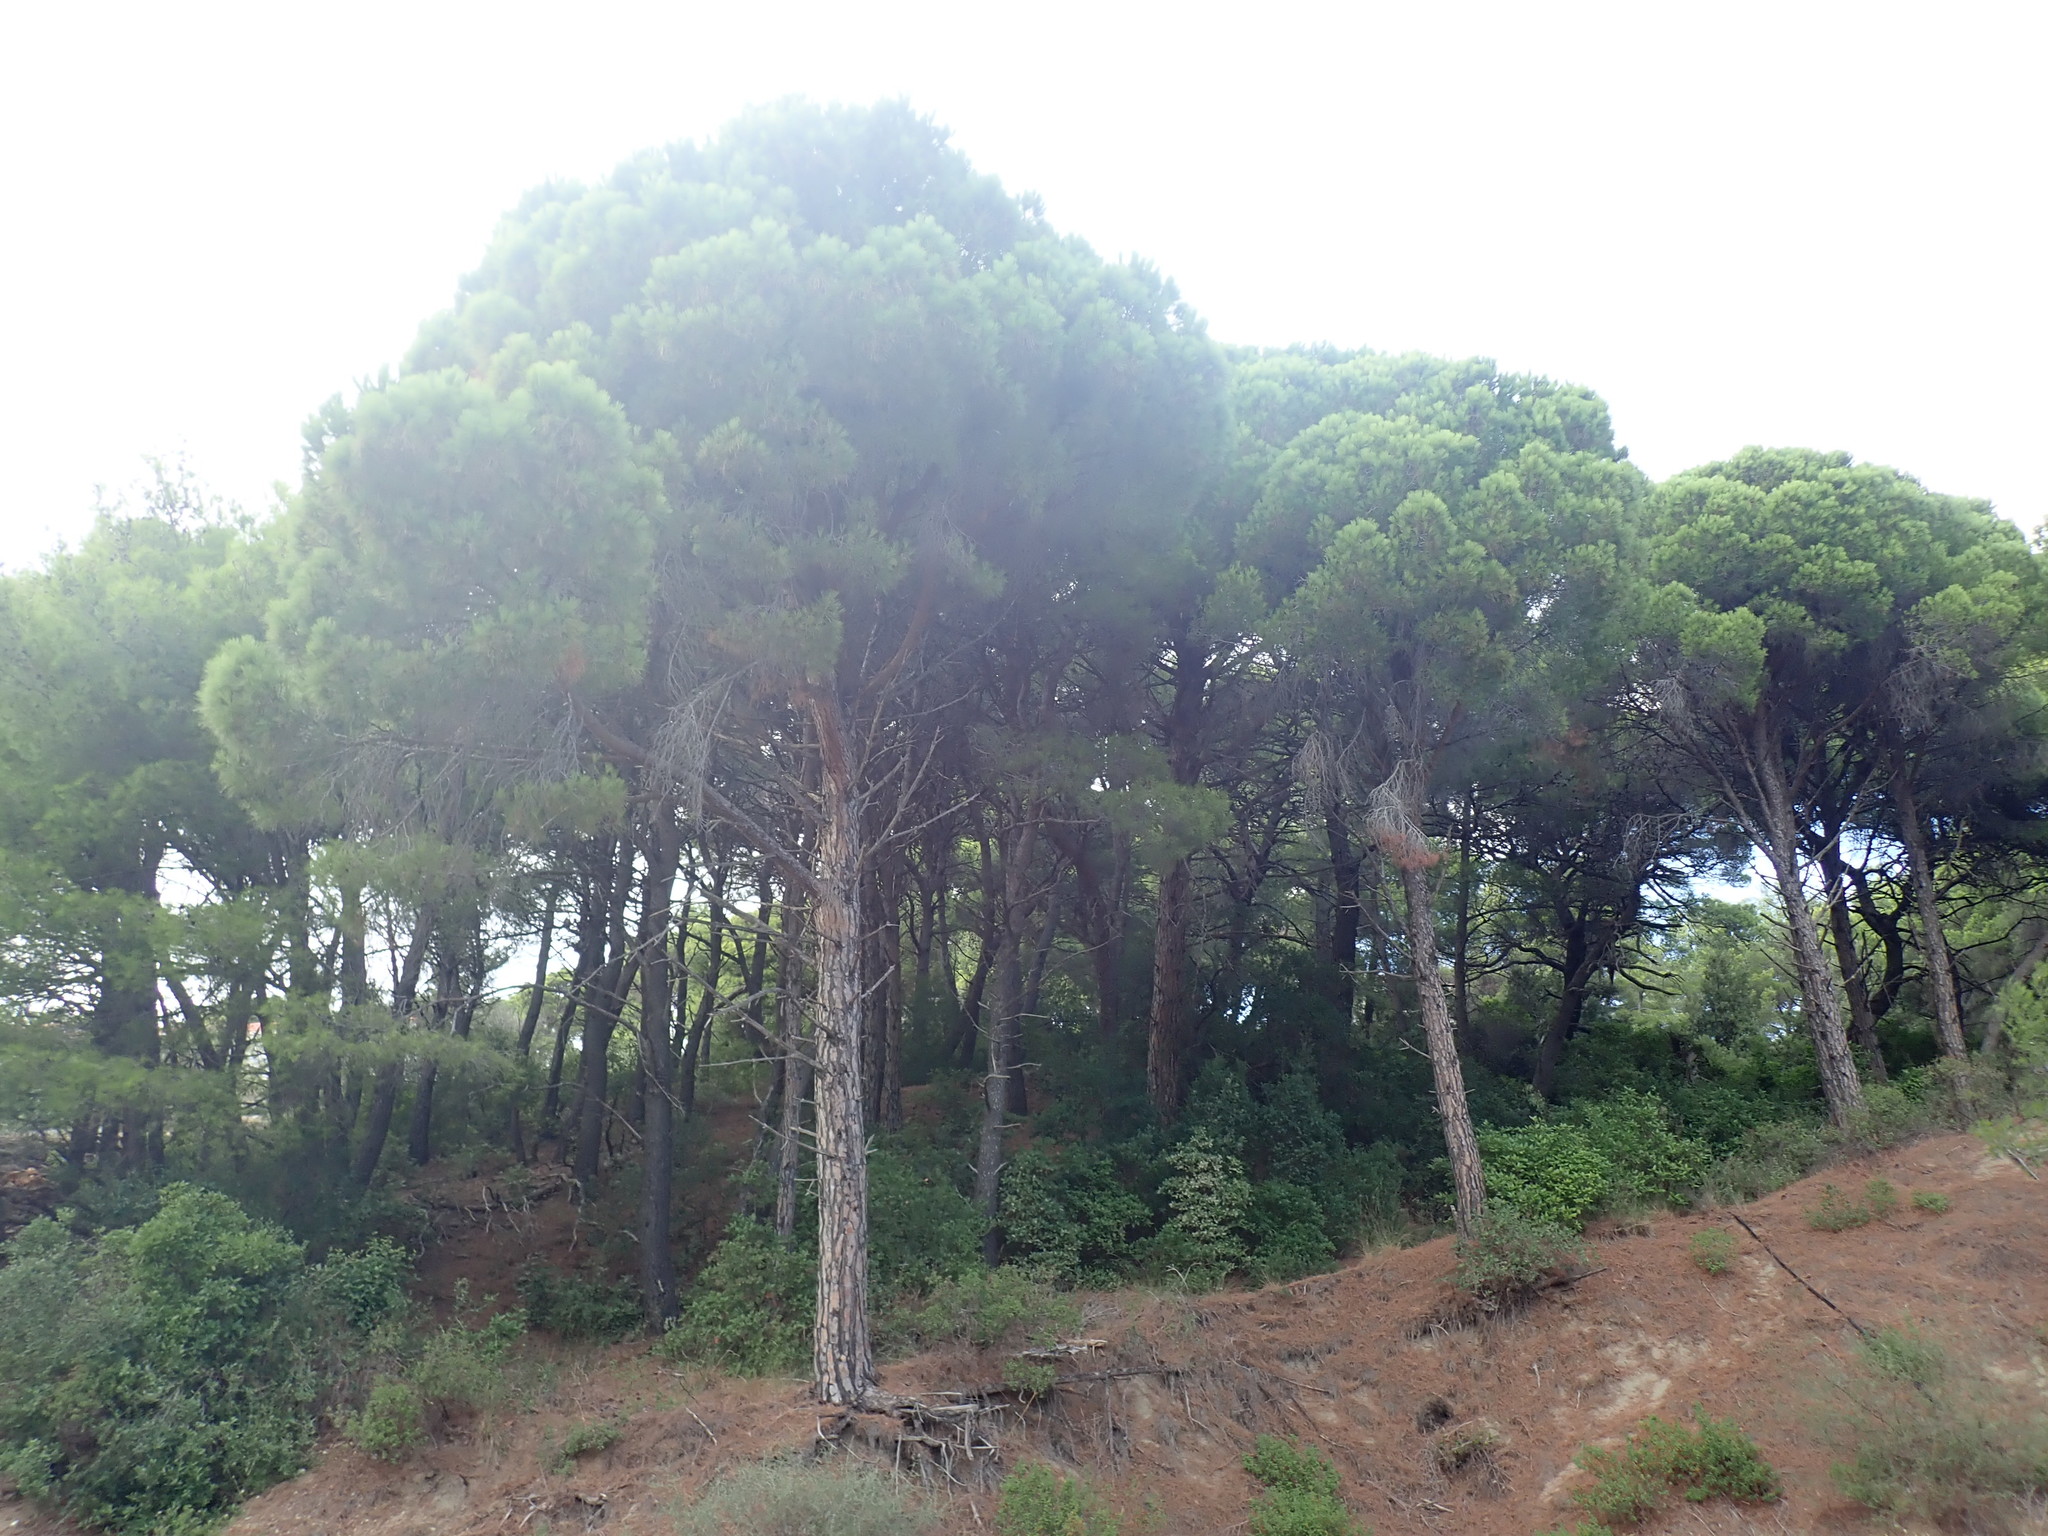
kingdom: Plantae
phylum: Tracheophyta
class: Pinopsida
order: Pinales
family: Pinaceae
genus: Pinus
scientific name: Pinus pinea
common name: Italian stone pine
